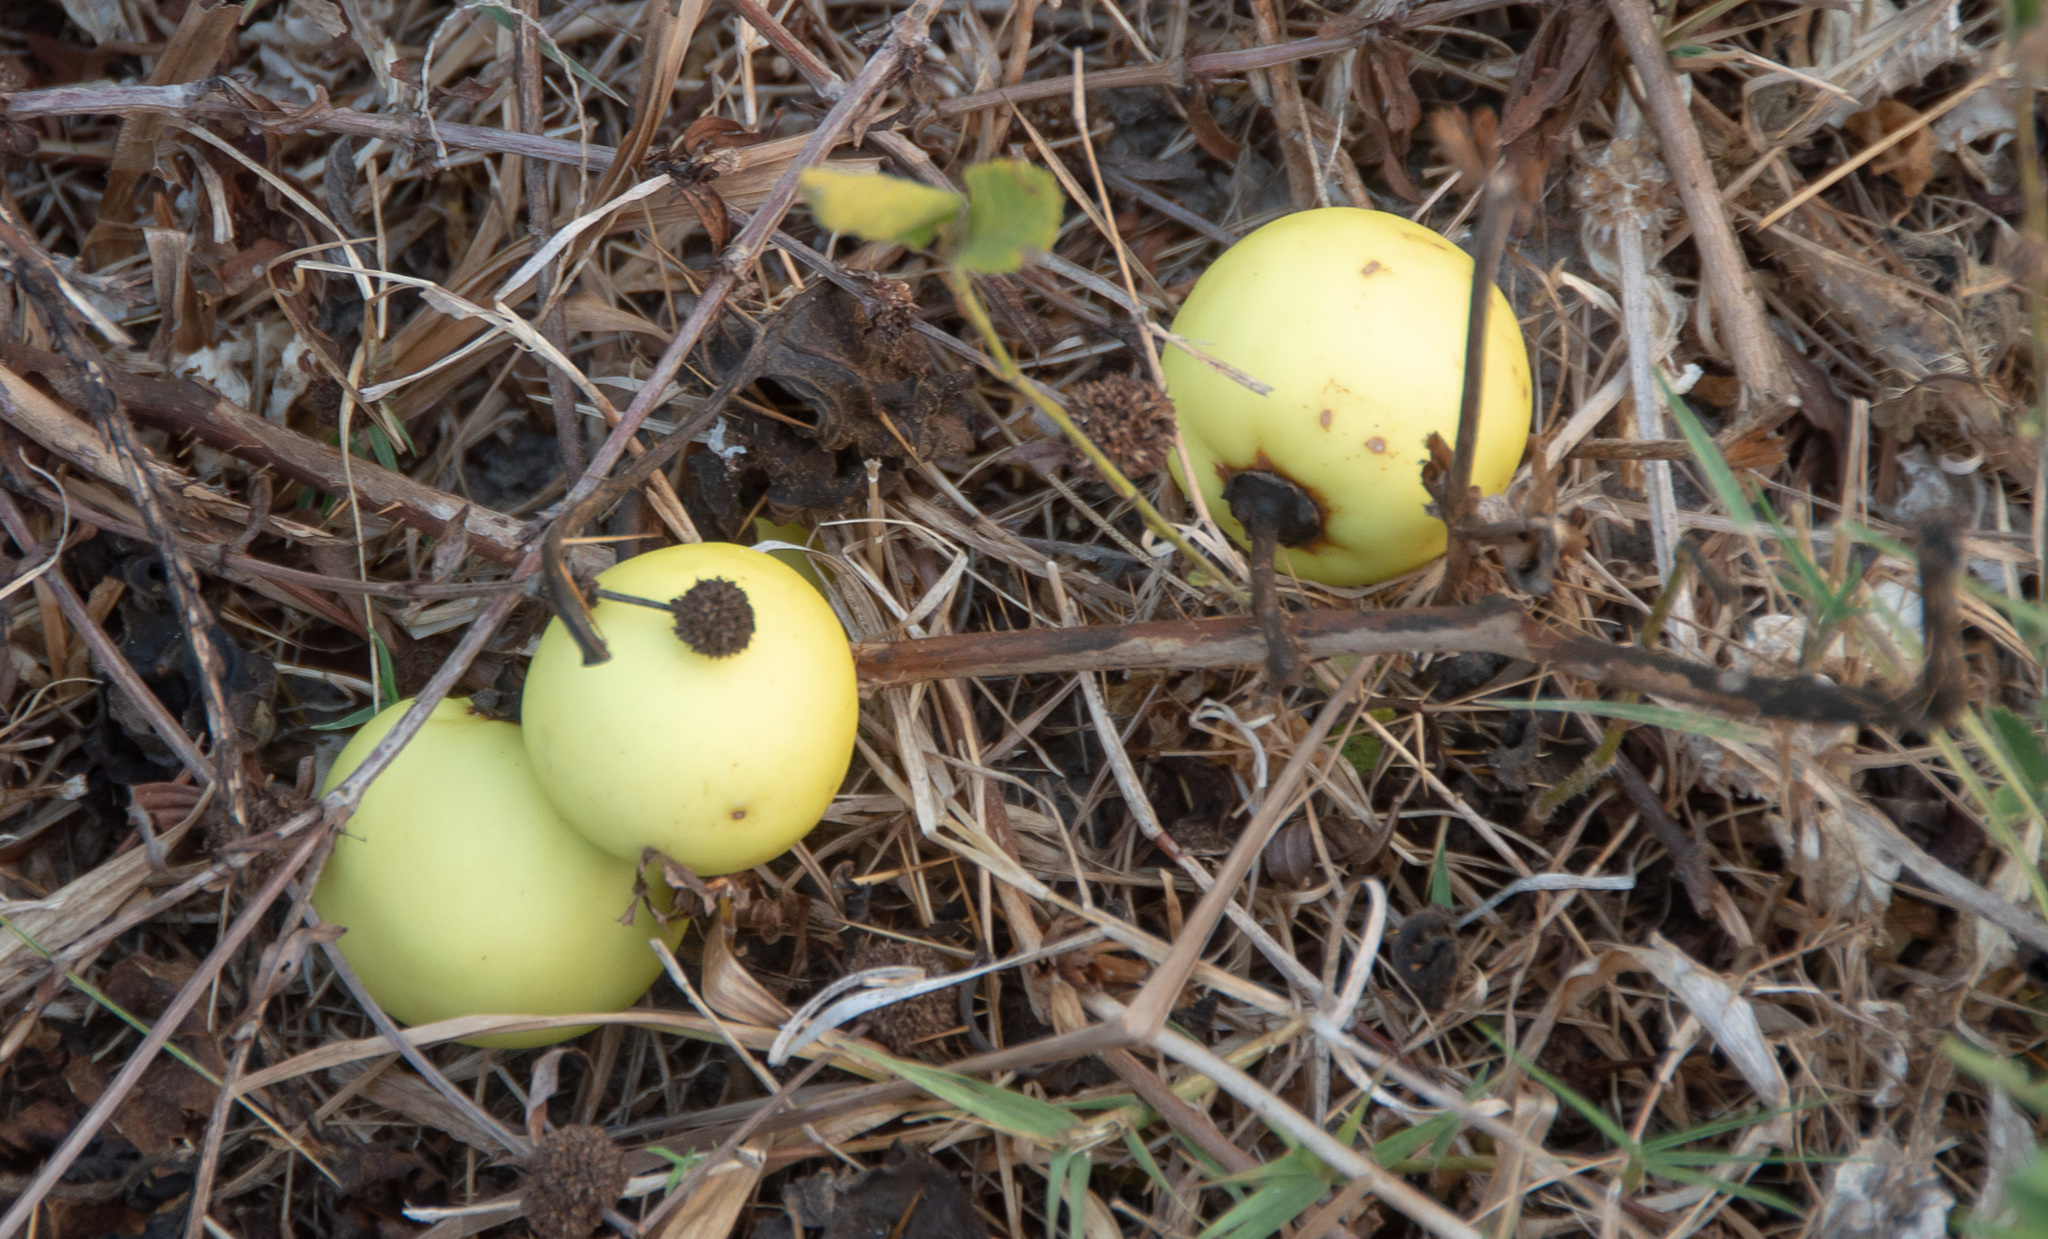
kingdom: Plantae
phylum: Tracheophyta
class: Magnoliopsida
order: Solanales
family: Solanaceae
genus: Solanum
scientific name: Solanum viarum
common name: Tropical soda apple
